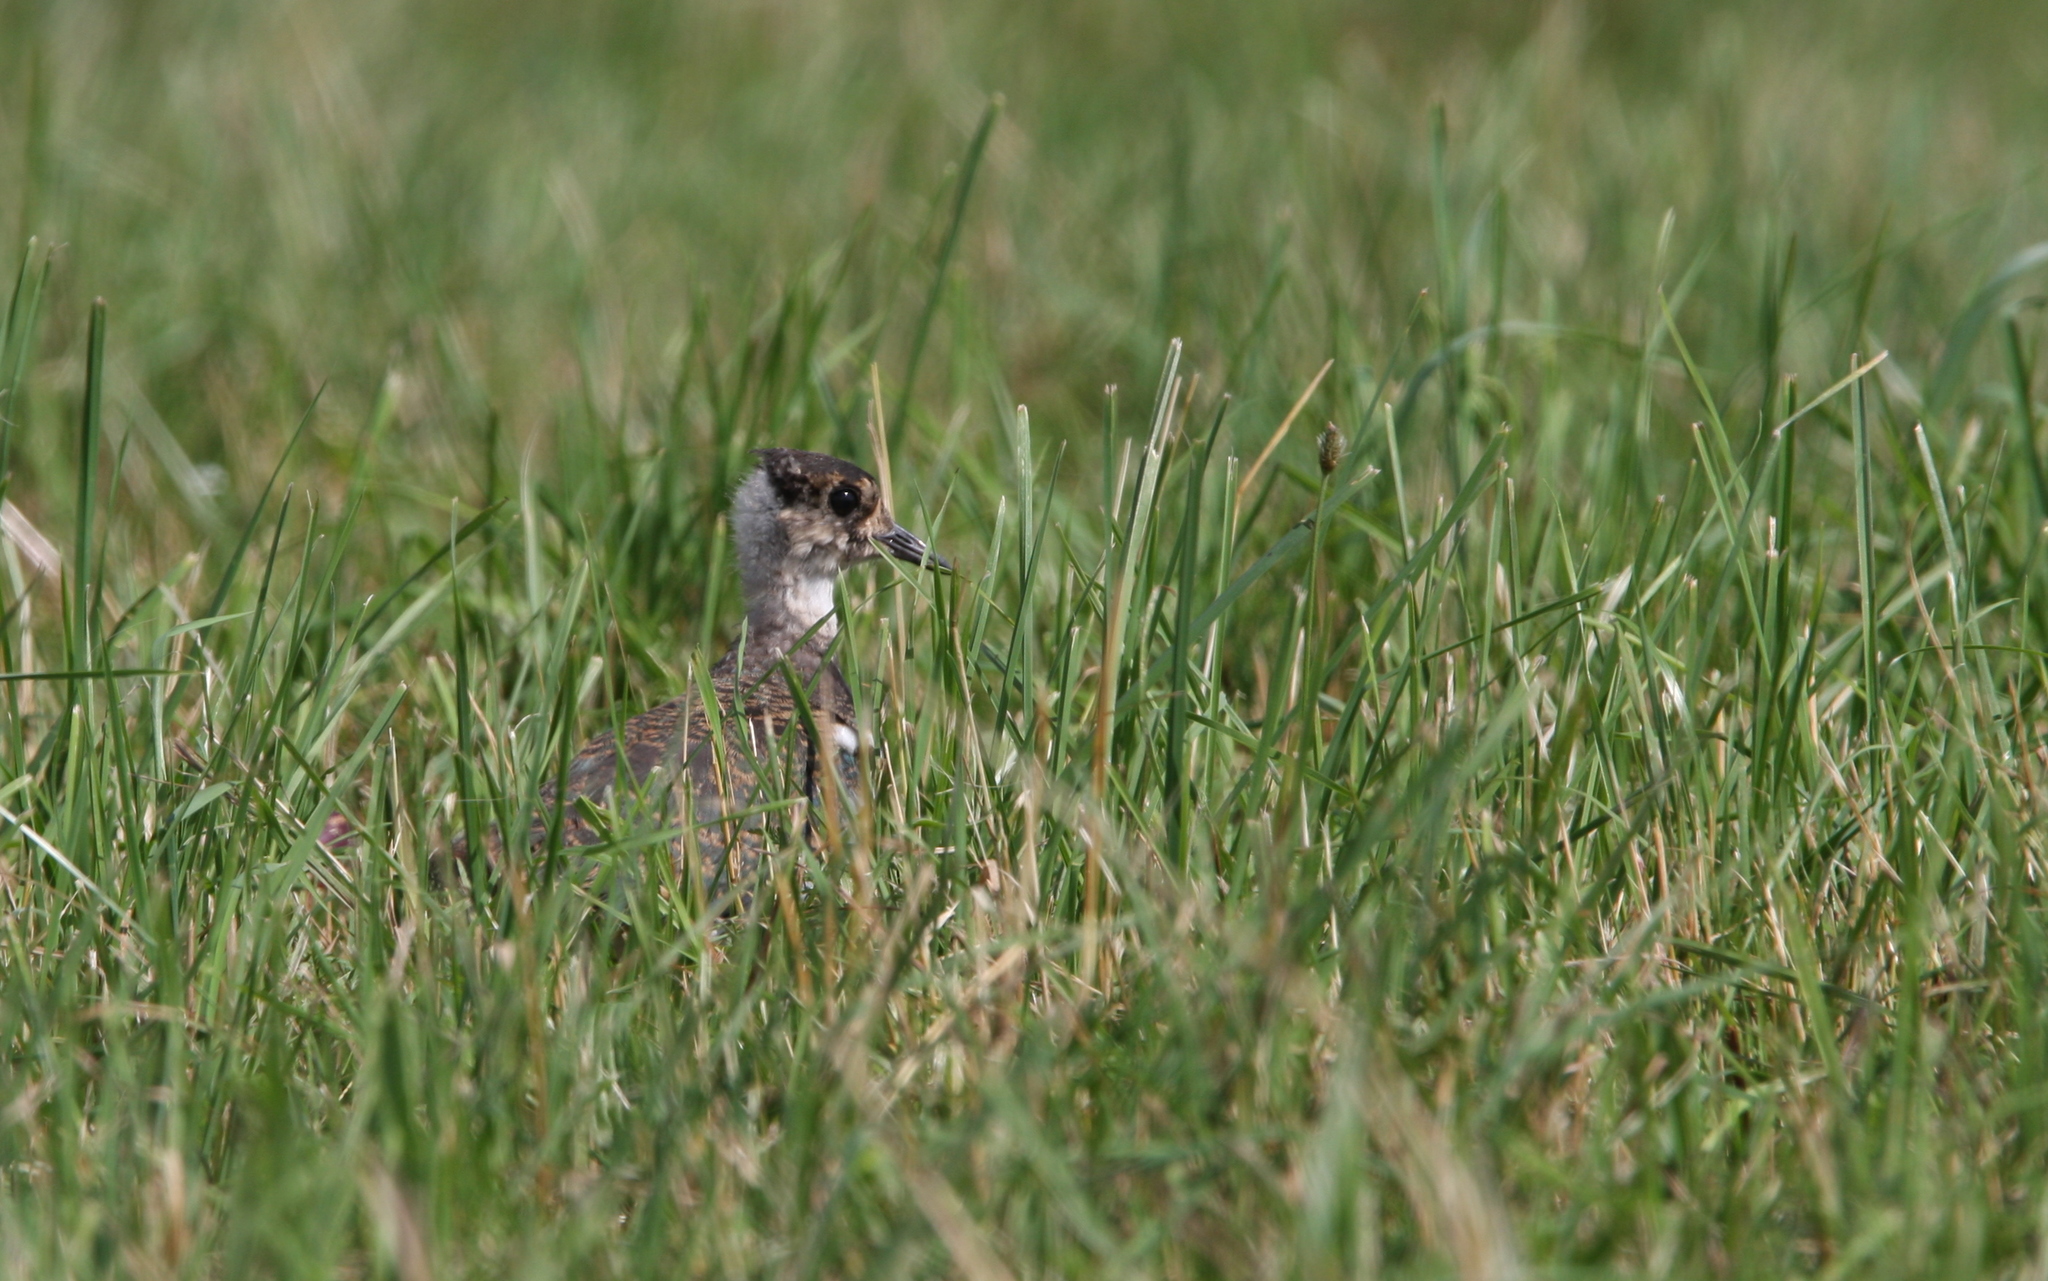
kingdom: Animalia
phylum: Chordata
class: Aves
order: Charadriiformes
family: Charadriidae
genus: Vanellus
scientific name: Vanellus vanellus
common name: Northern lapwing
